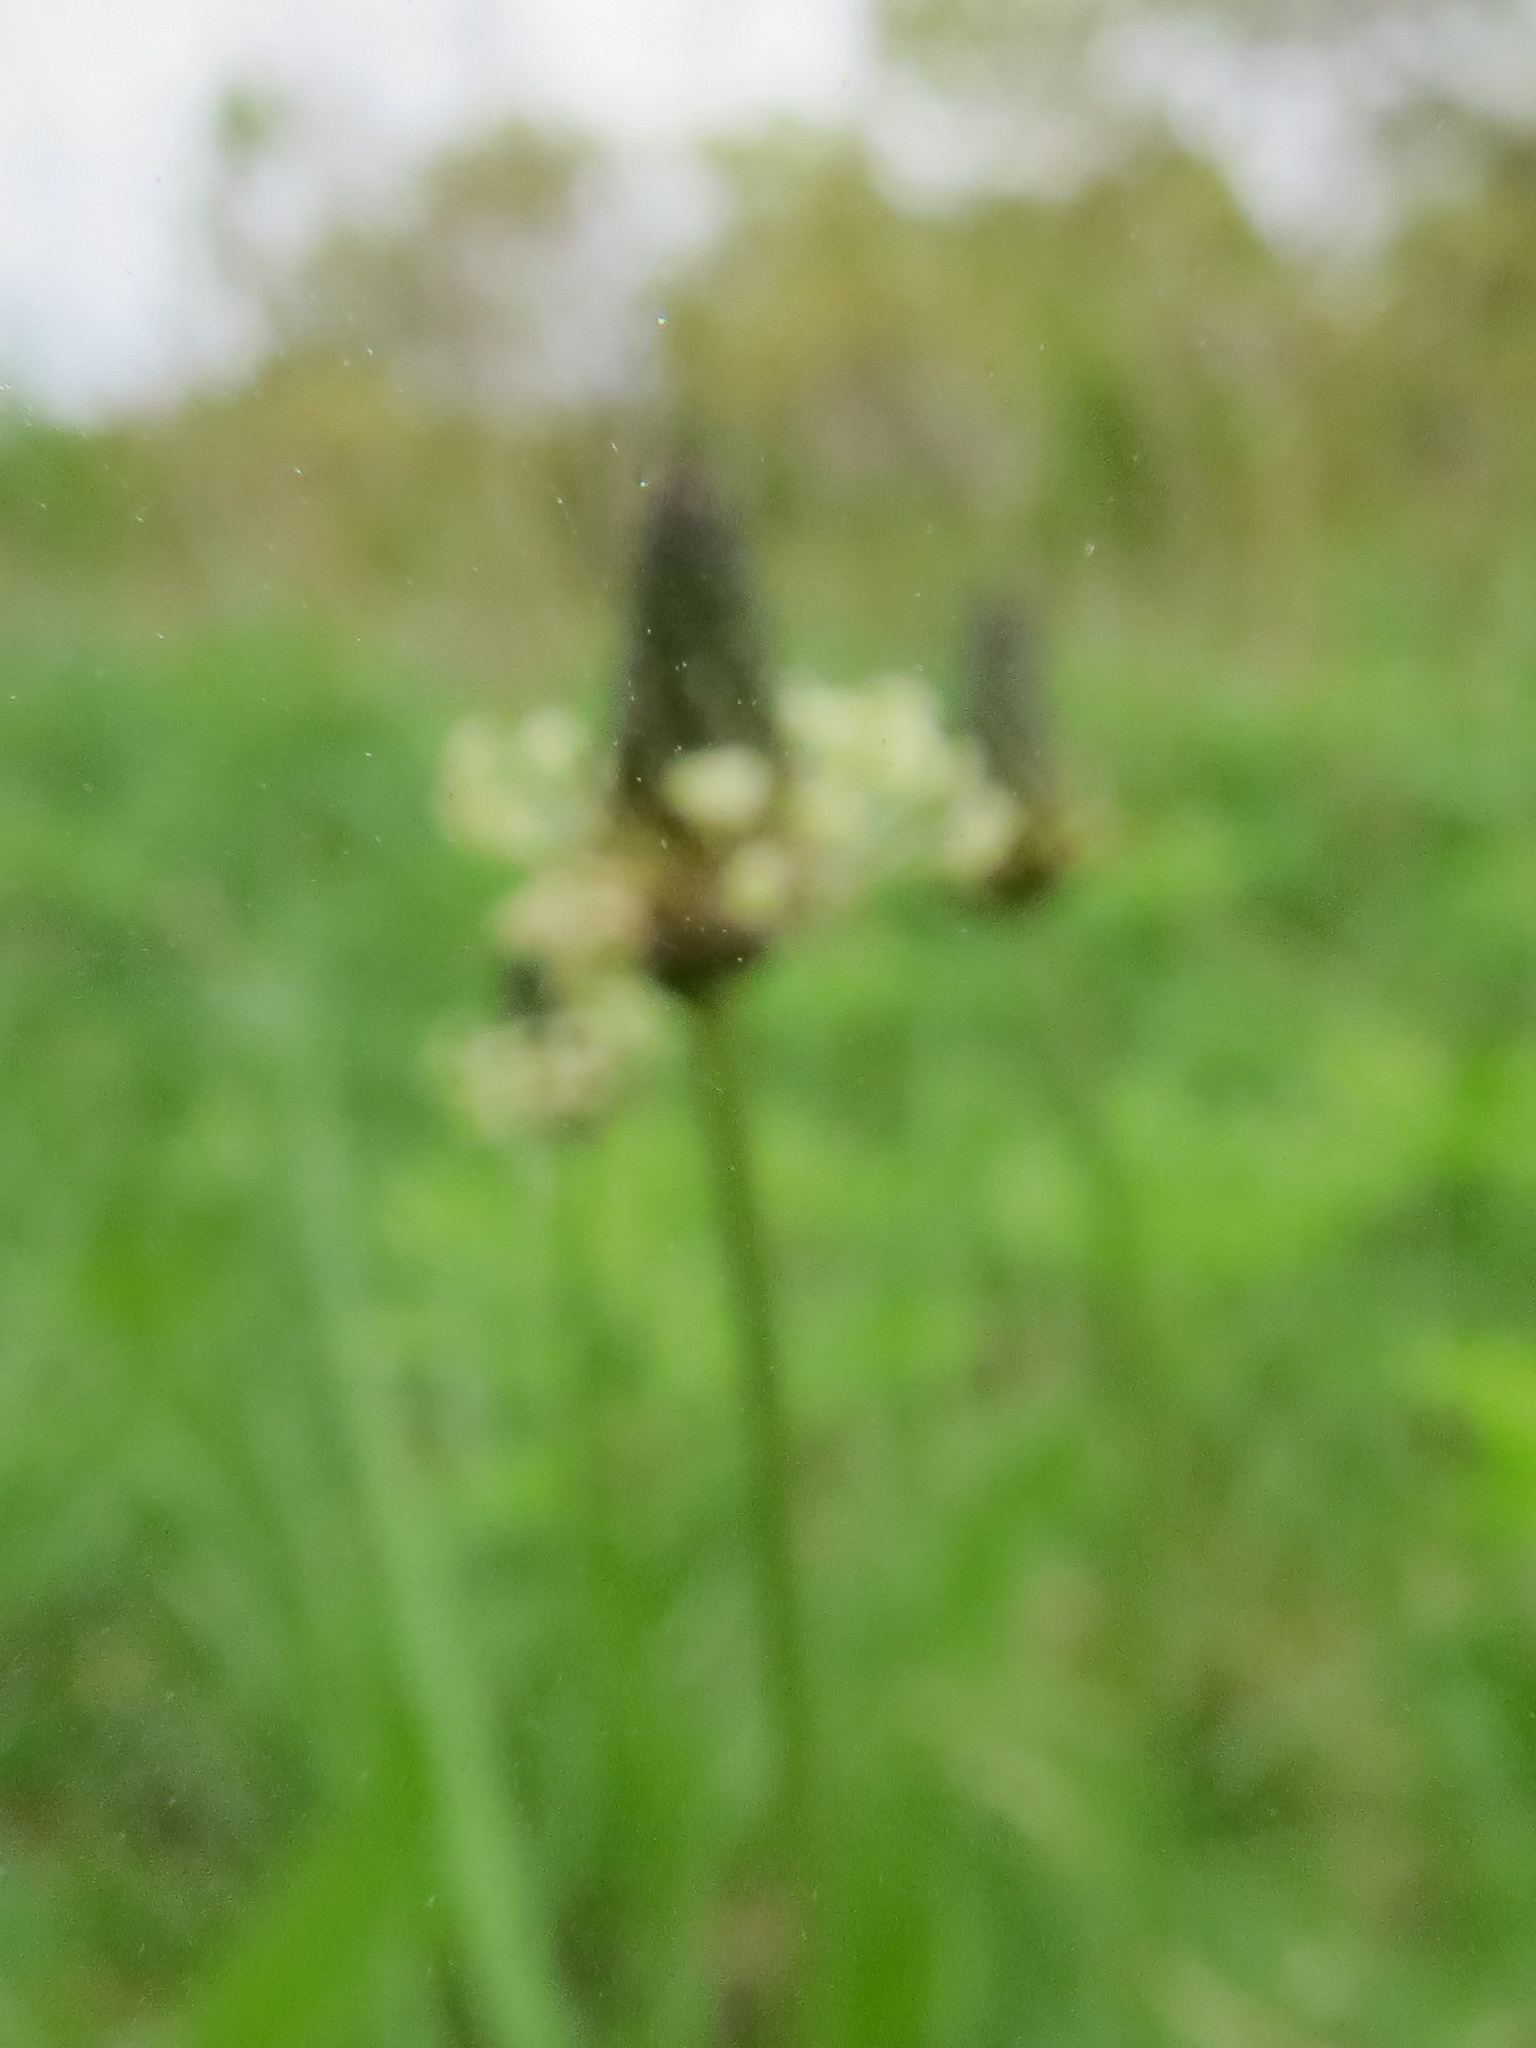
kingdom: Plantae
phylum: Tracheophyta
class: Magnoliopsida
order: Lamiales
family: Plantaginaceae
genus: Plantago
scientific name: Plantago lanceolata
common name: Ribwort plantain
